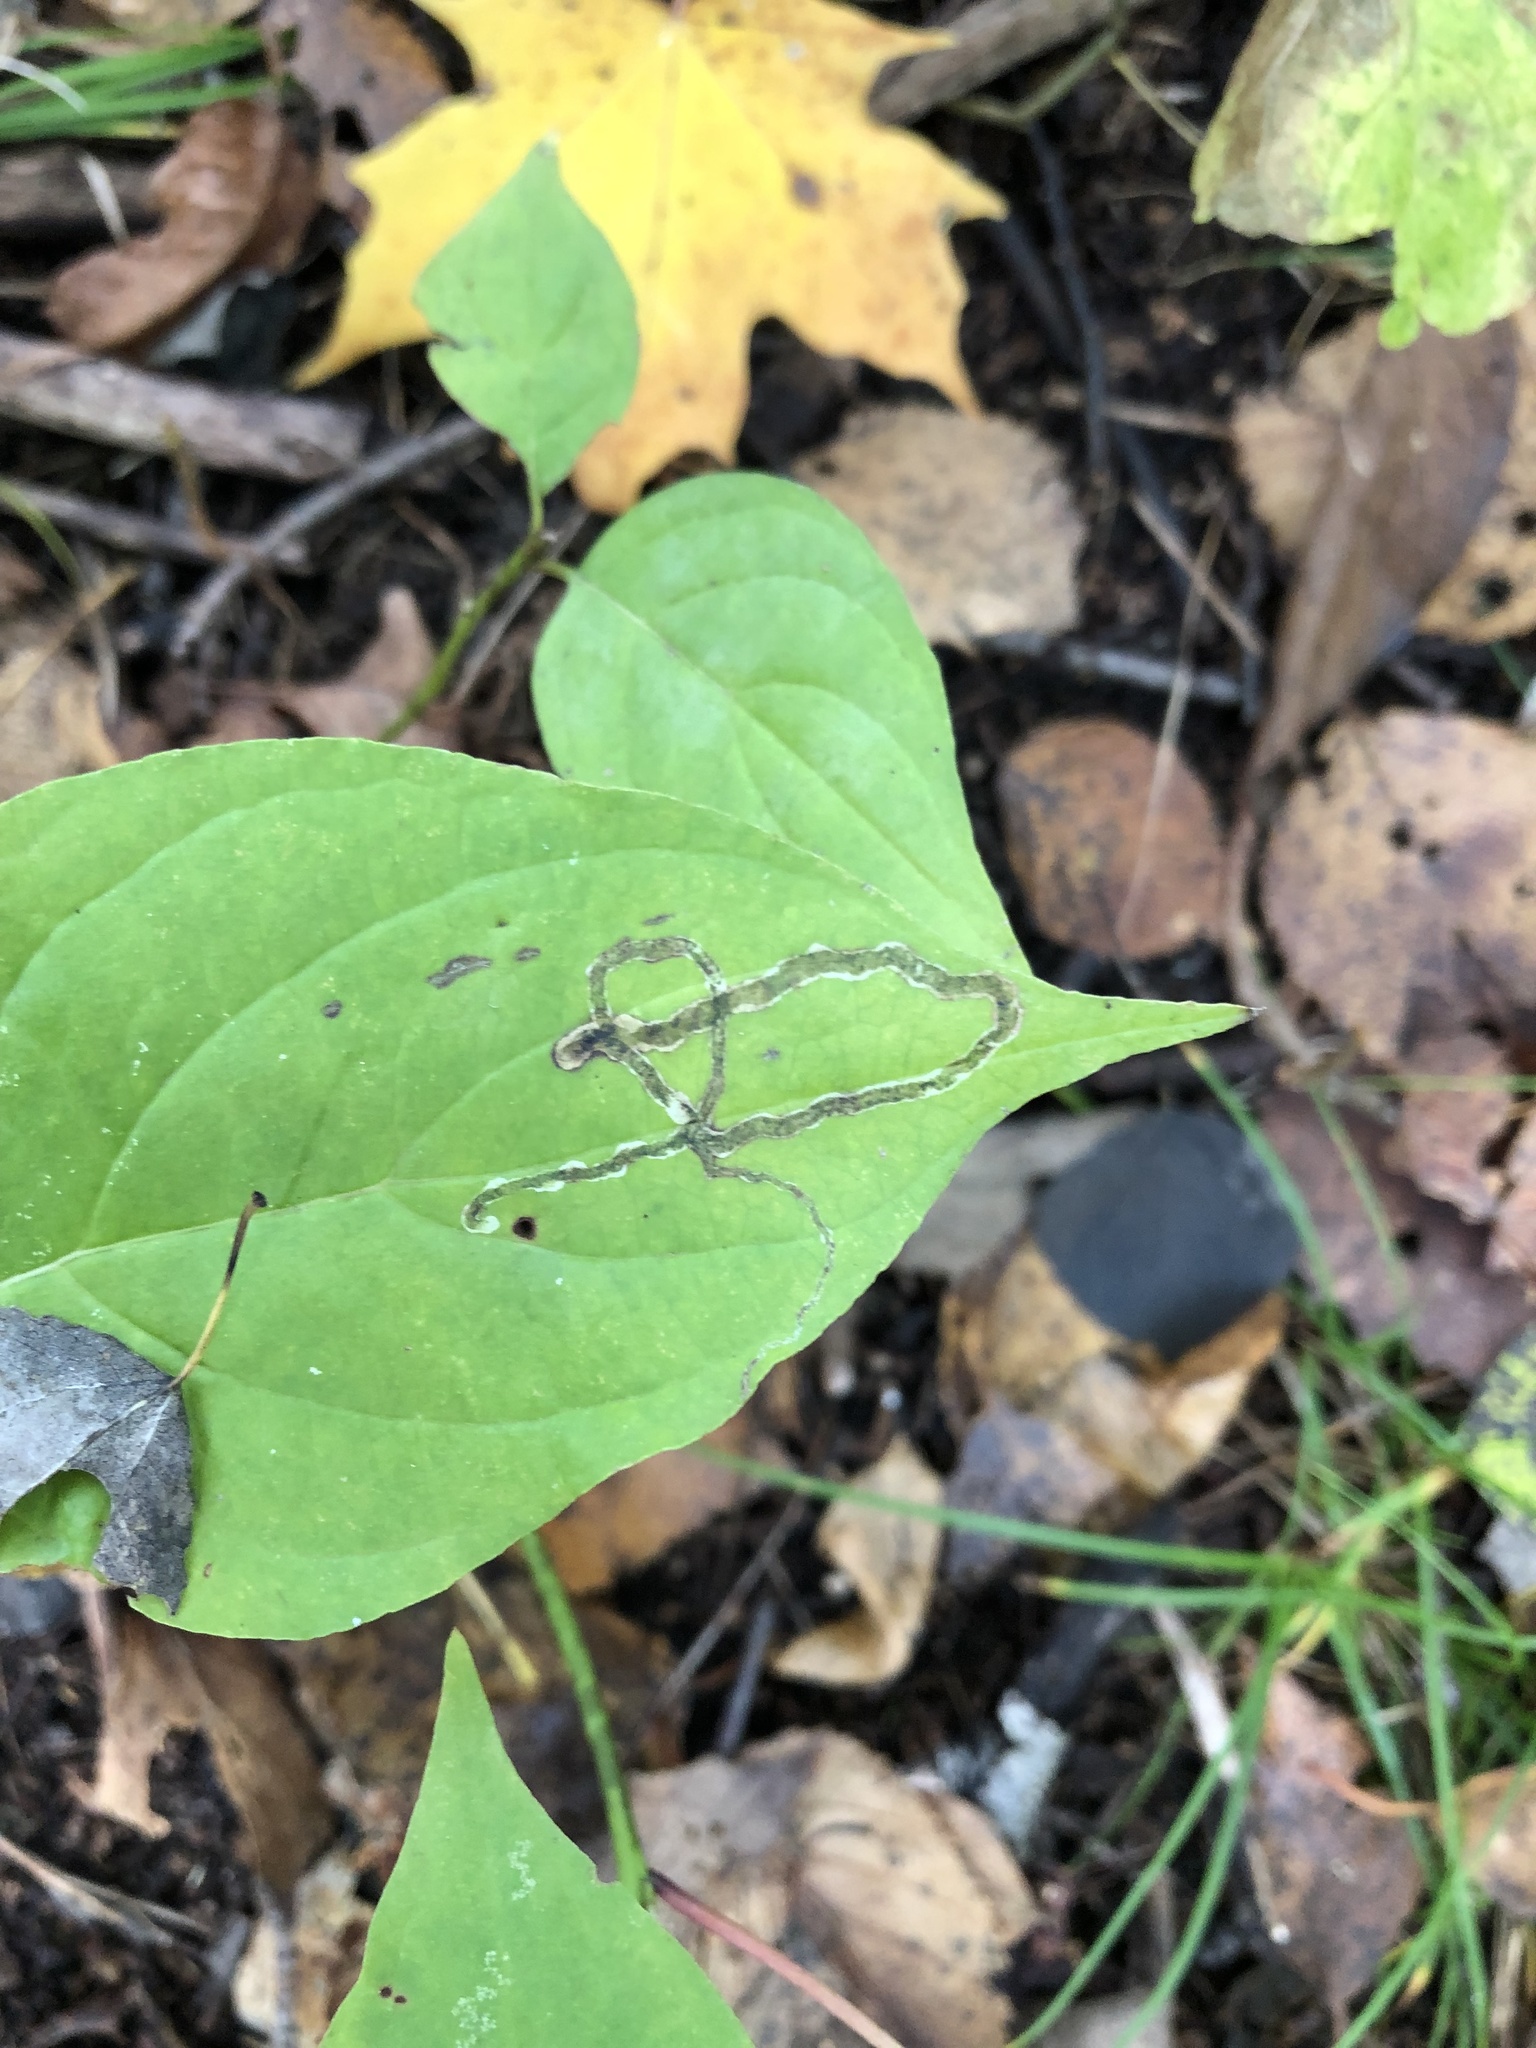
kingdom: Animalia
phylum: Arthropoda
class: Insecta
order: Diptera
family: Agromyzidae
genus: Phytomyza
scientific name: Phytomyza agromyzina
